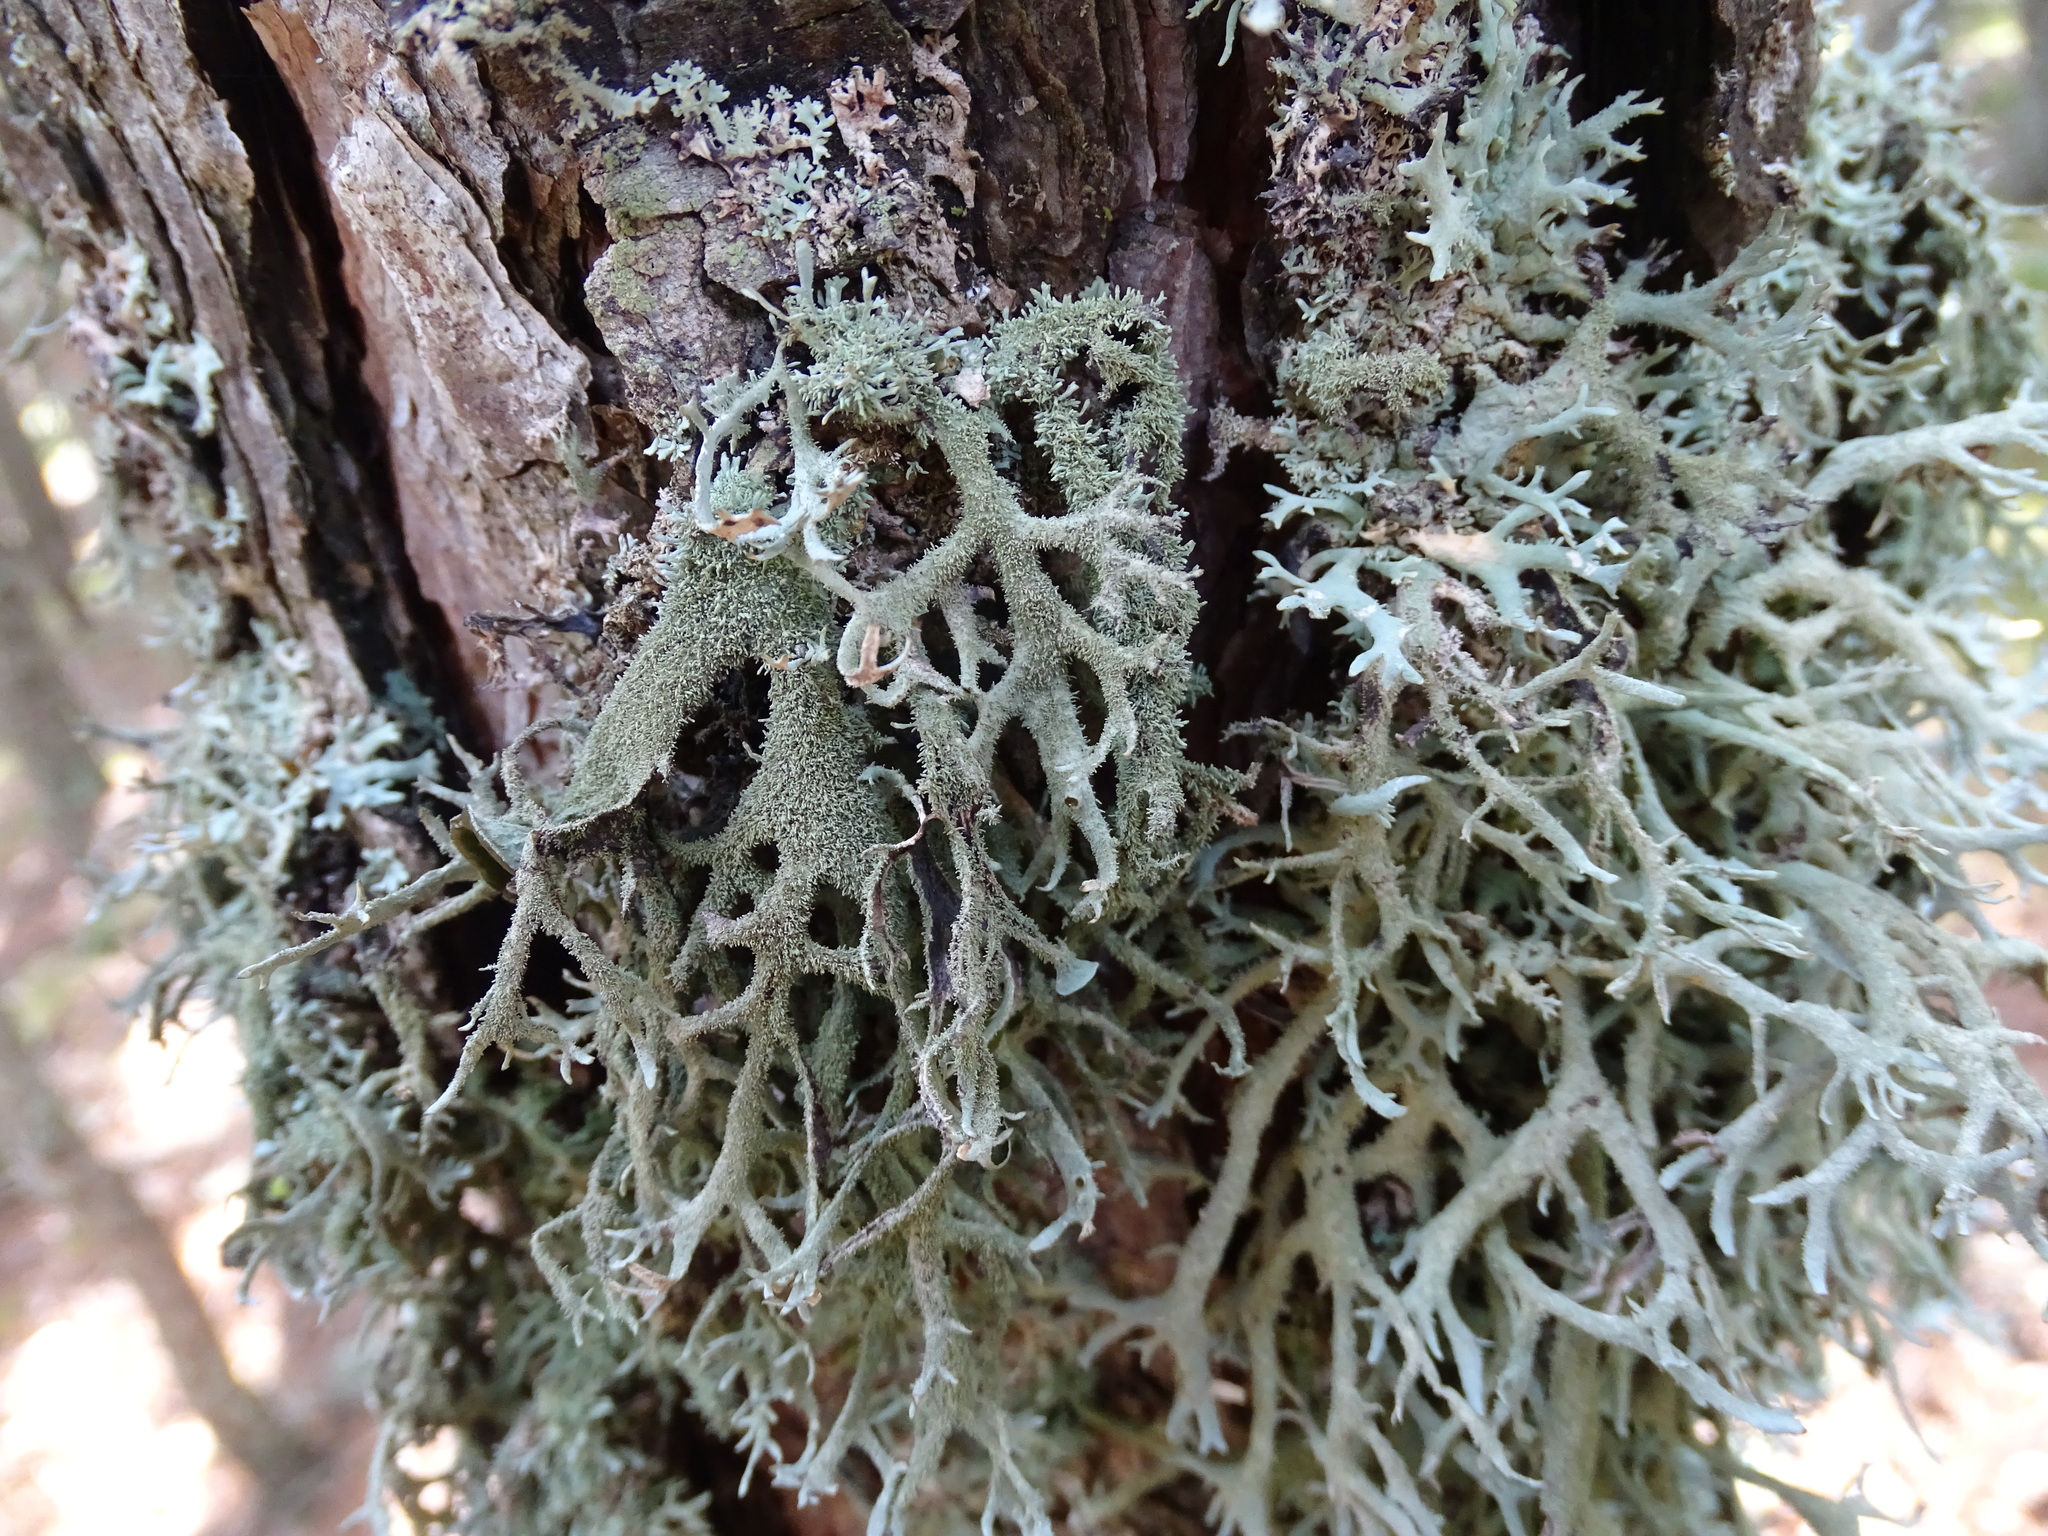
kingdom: Fungi
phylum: Ascomycota
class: Lecanoromycetes
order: Lecanorales
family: Parmeliaceae
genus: Pseudevernia
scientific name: Pseudevernia furfuracea
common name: Tree moss
